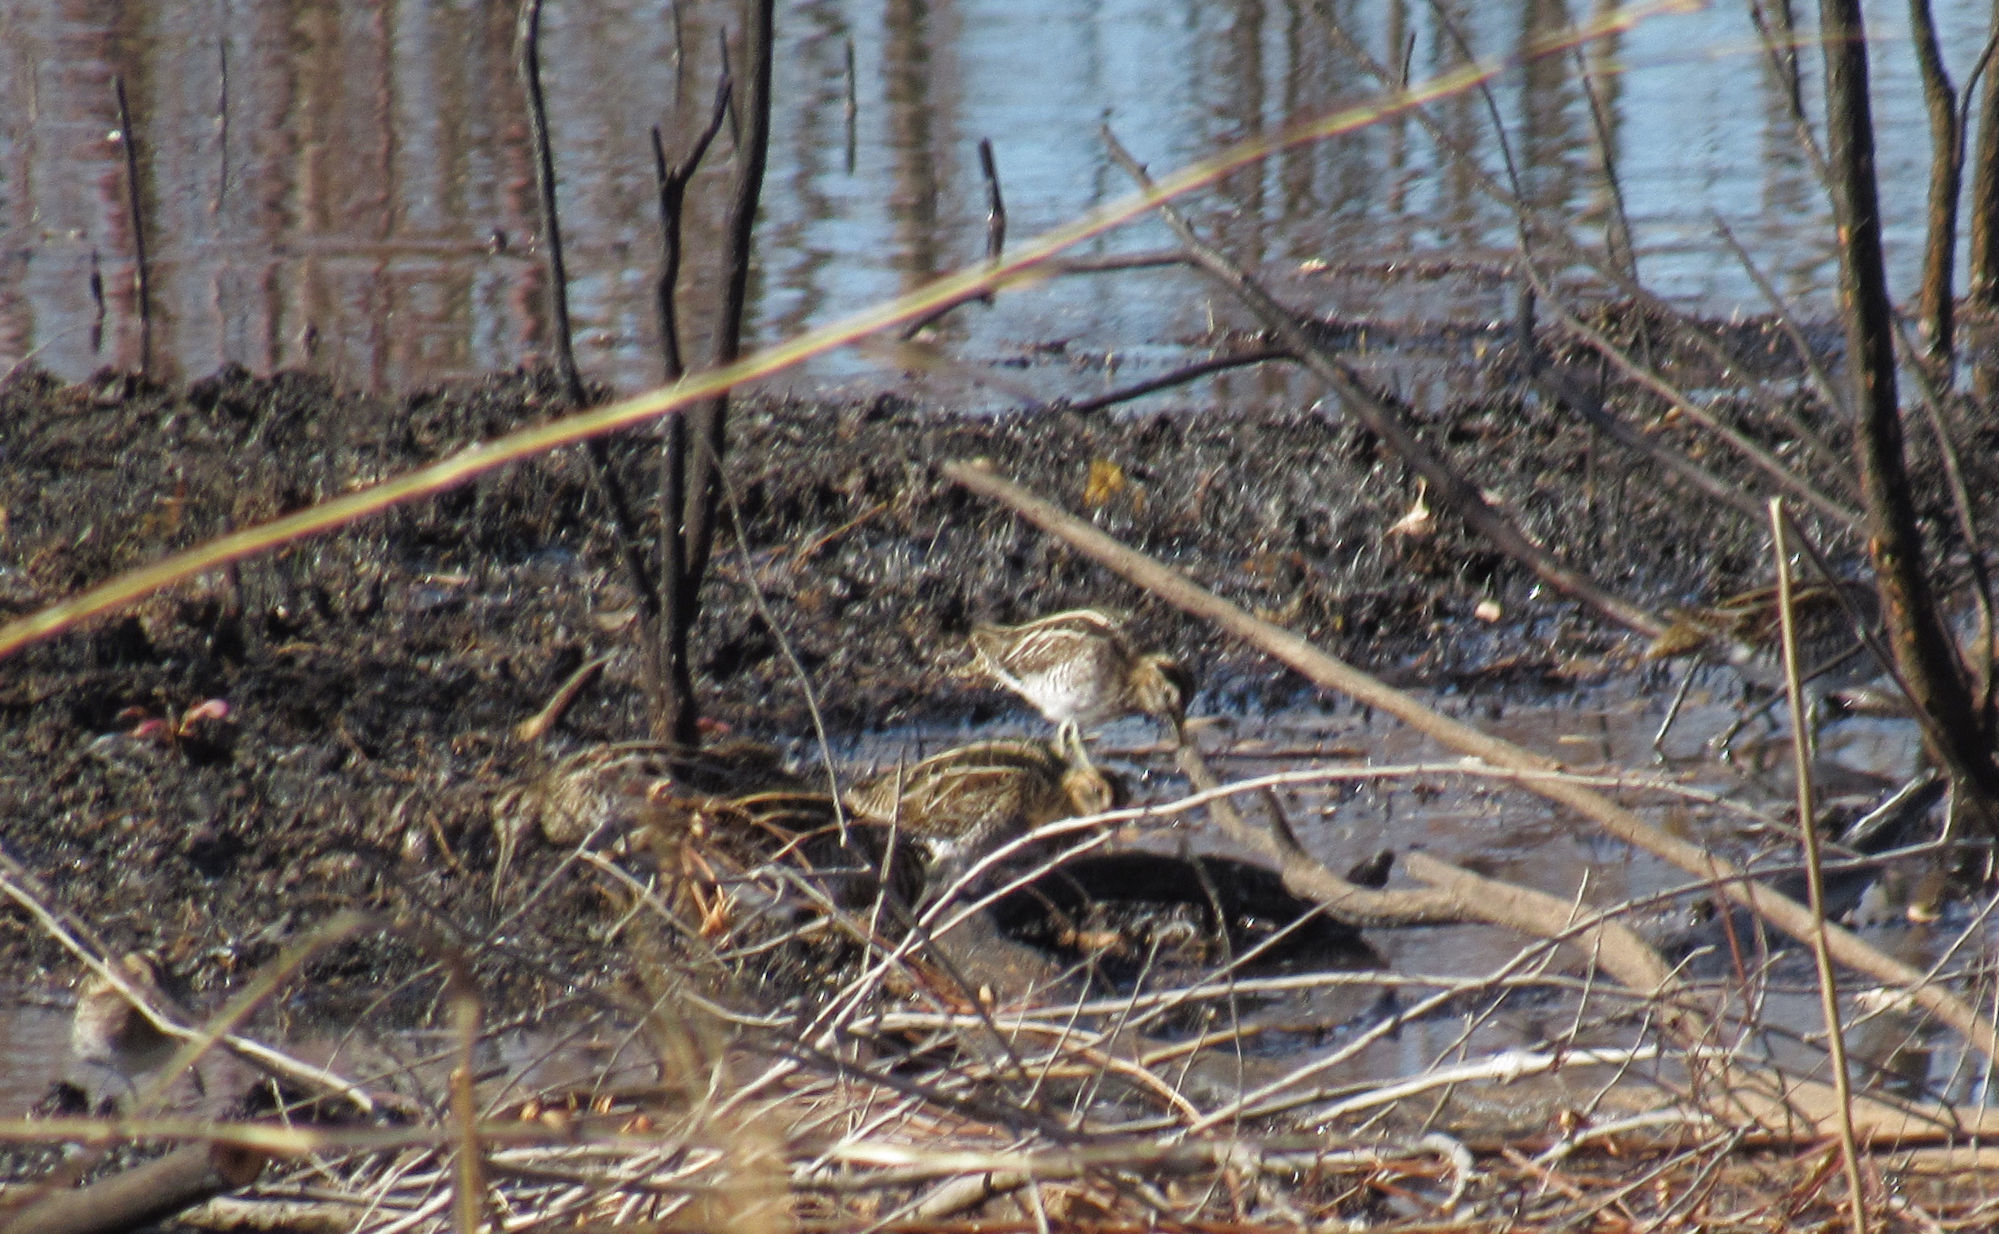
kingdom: Animalia
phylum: Chordata
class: Aves
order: Charadriiformes
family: Scolopacidae
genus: Gallinago
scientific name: Gallinago delicata
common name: Wilson's snipe
